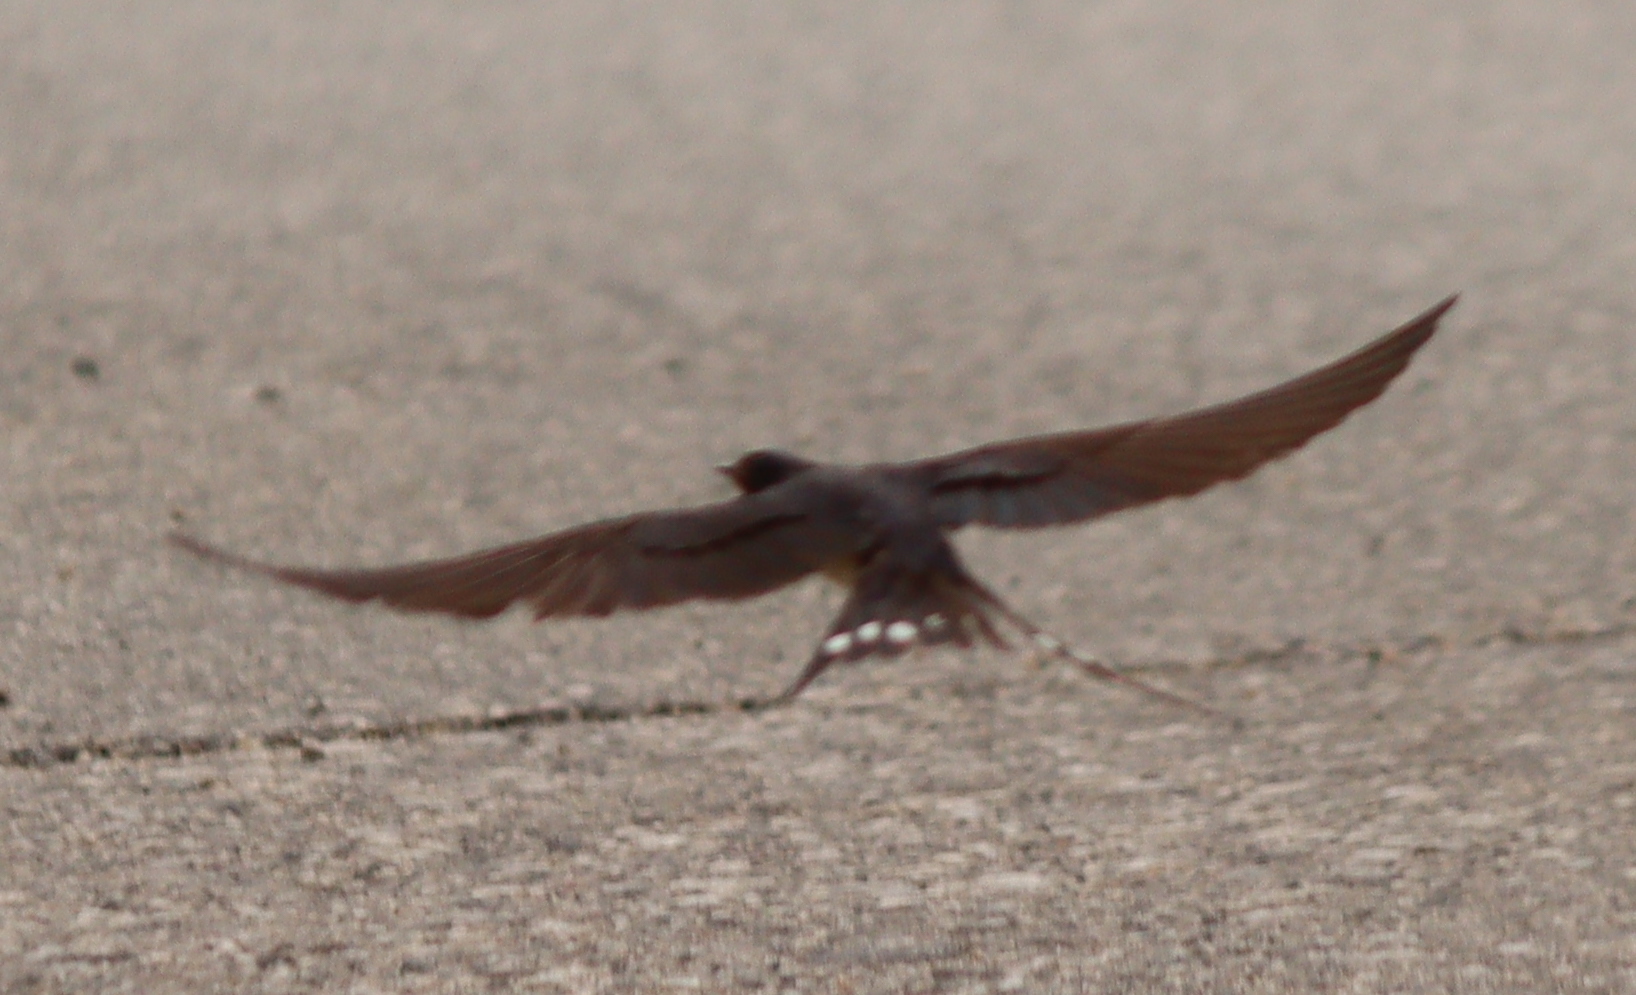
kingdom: Animalia
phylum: Chordata
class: Aves
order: Passeriformes
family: Hirundinidae
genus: Hirundo
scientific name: Hirundo rustica
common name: Barn swallow
